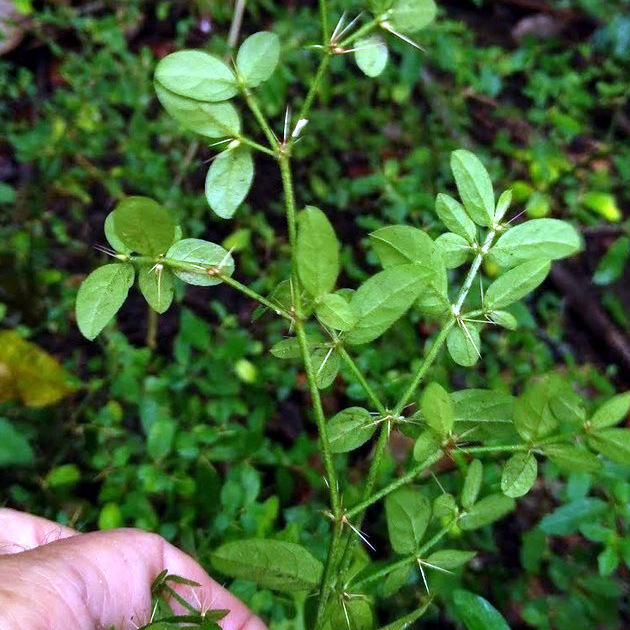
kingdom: Plantae
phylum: Tracheophyta
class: Magnoliopsida
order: Caryophyllales
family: Amaranthaceae
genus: Nyssanthes
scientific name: Nyssanthes diffusa
